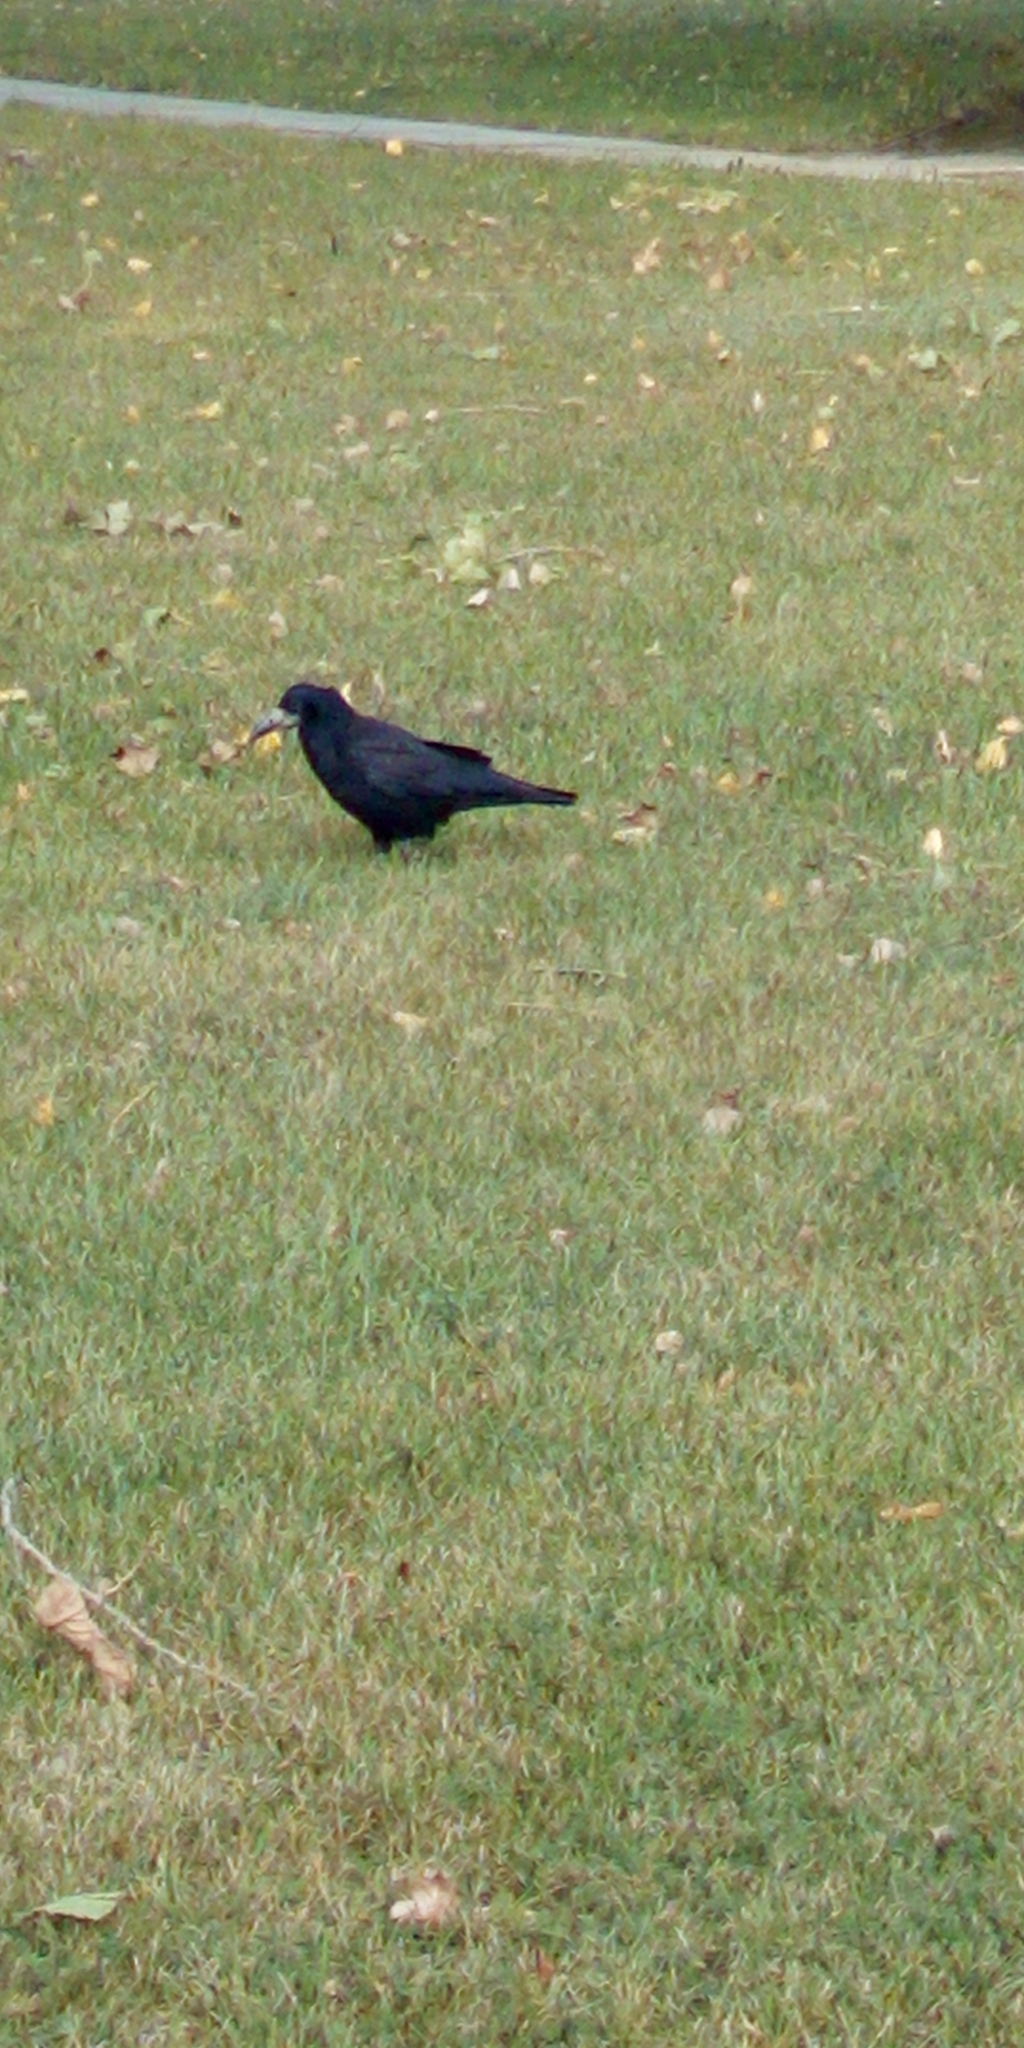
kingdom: Animalia
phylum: Chordata
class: Aves
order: Passeriformes
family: Corvidae
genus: Corvus
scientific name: Corvus frugilegus
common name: Rook
